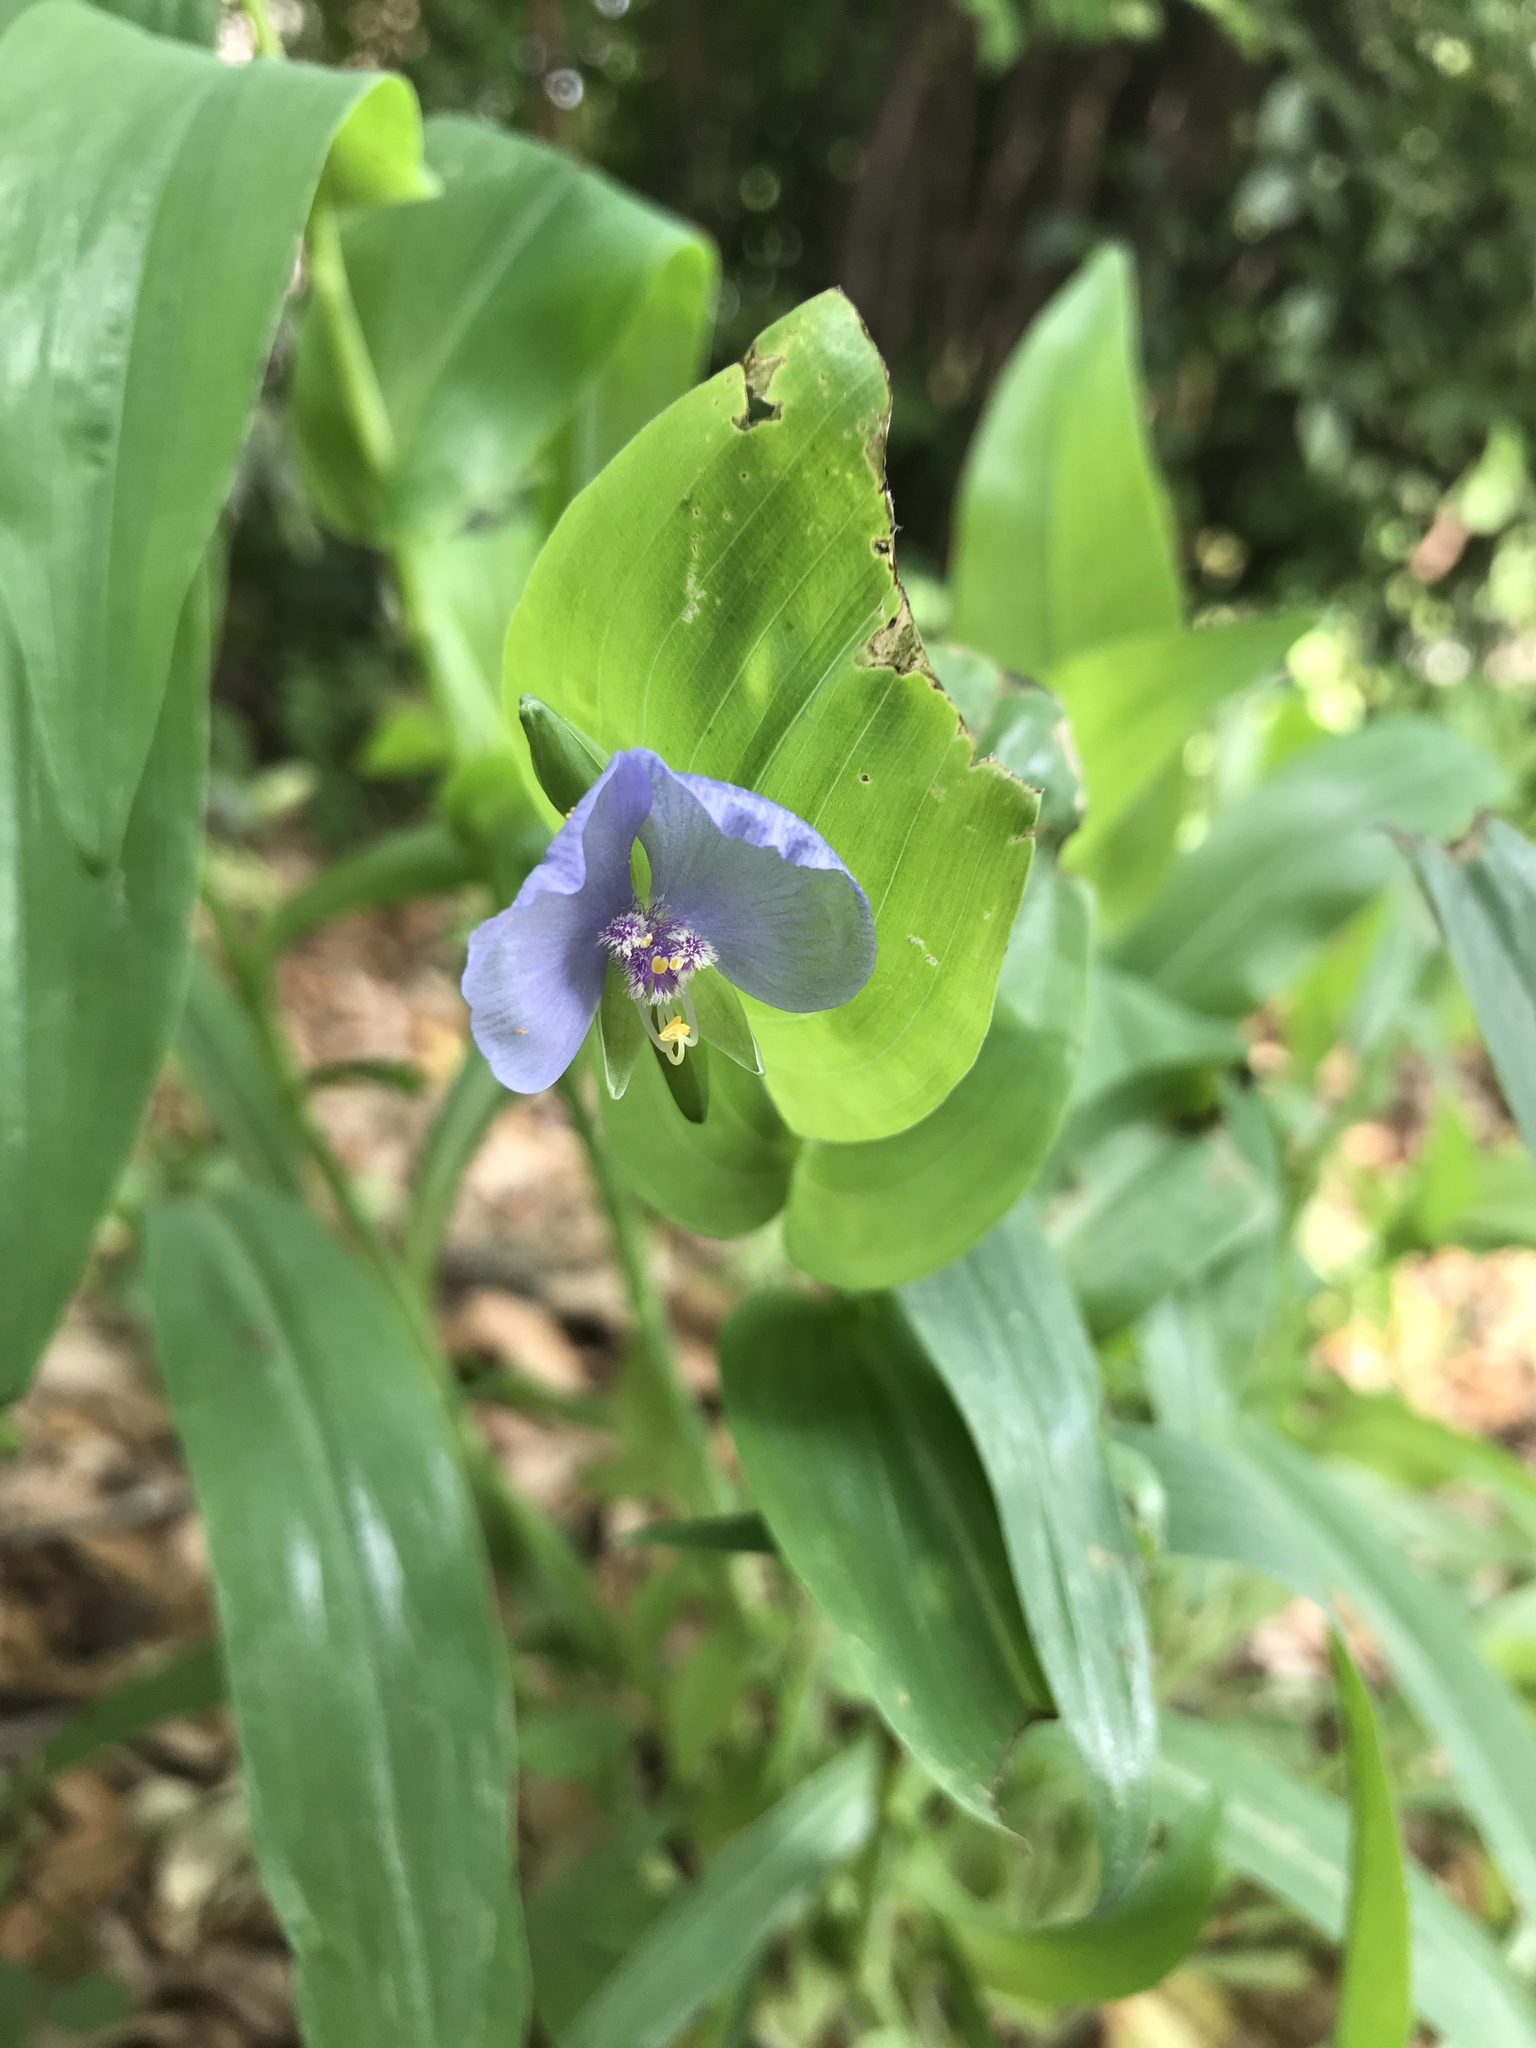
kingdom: Plantae
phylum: Tracheophyta
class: Liliopsida
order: Commelinales
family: Commelinaceae
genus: Tinantia
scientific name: Tinantia anomala
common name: False dayflower
